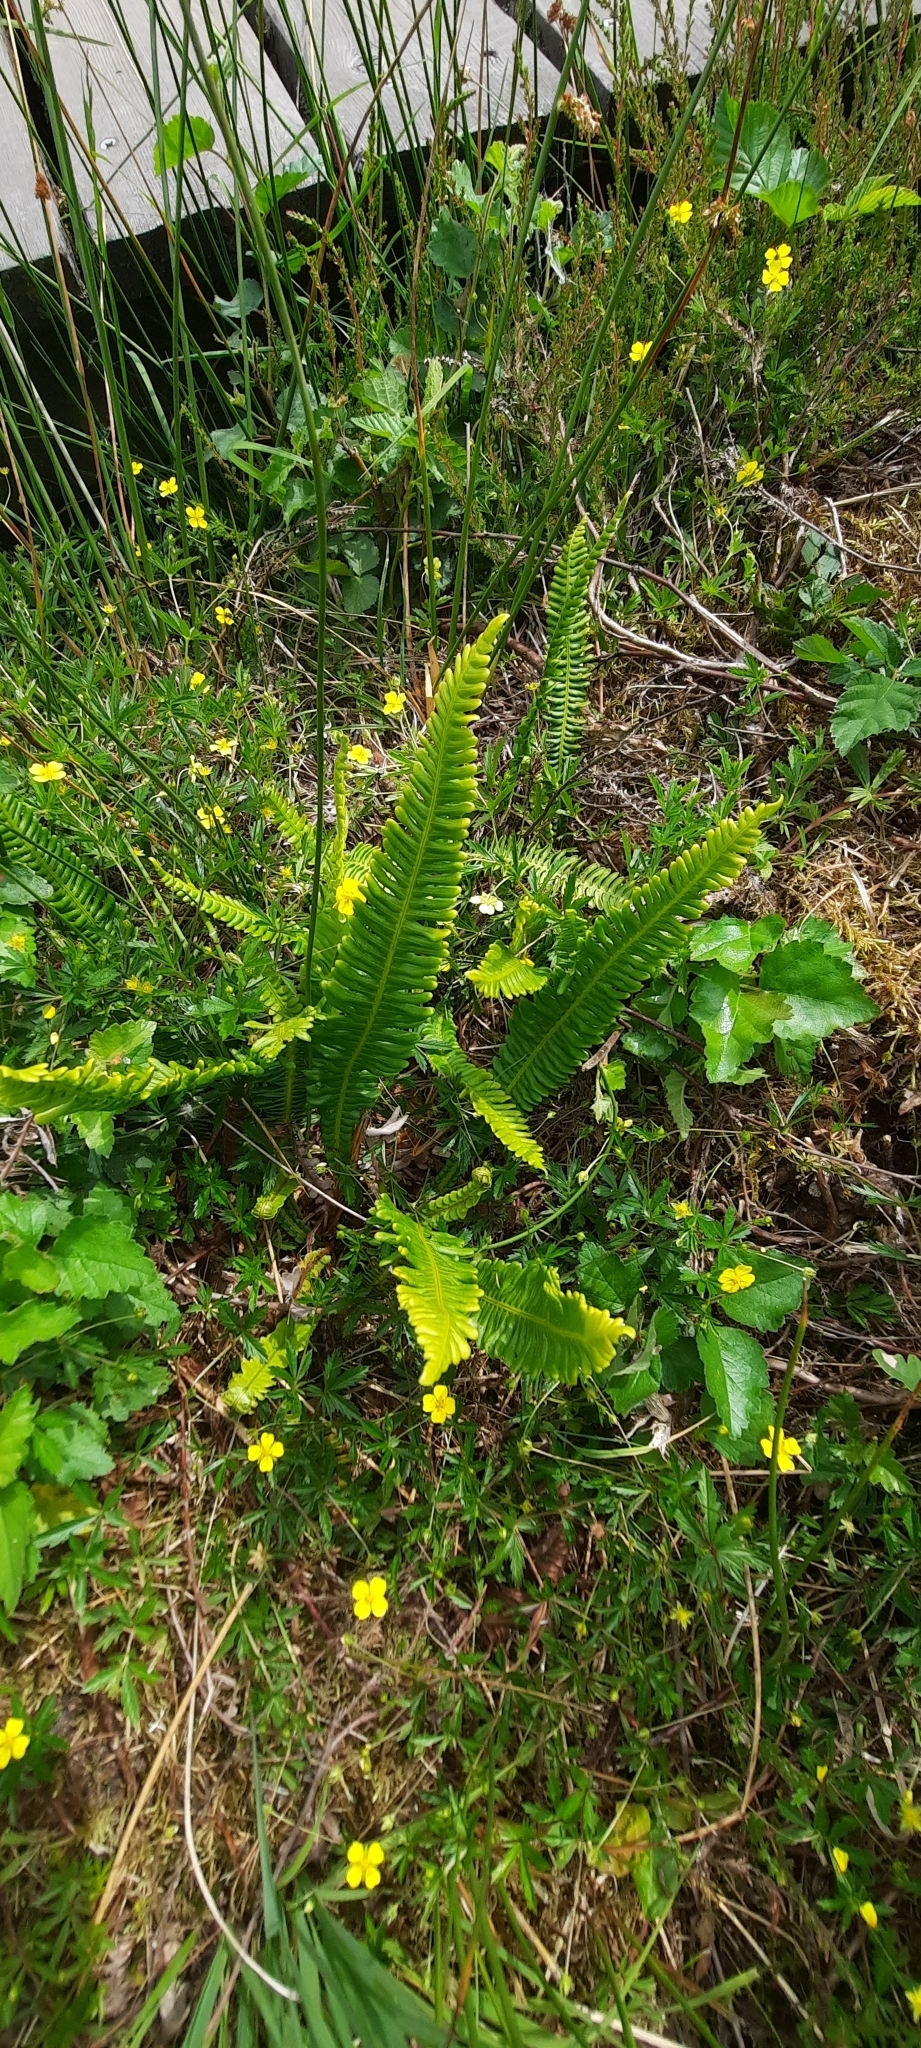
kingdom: Plantae
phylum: Tracheophyta
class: Polypodiopsida
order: Polypodiales
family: Blechnaceae
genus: Struthiopteris
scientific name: Struthiopteris spicant
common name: Deer fern
